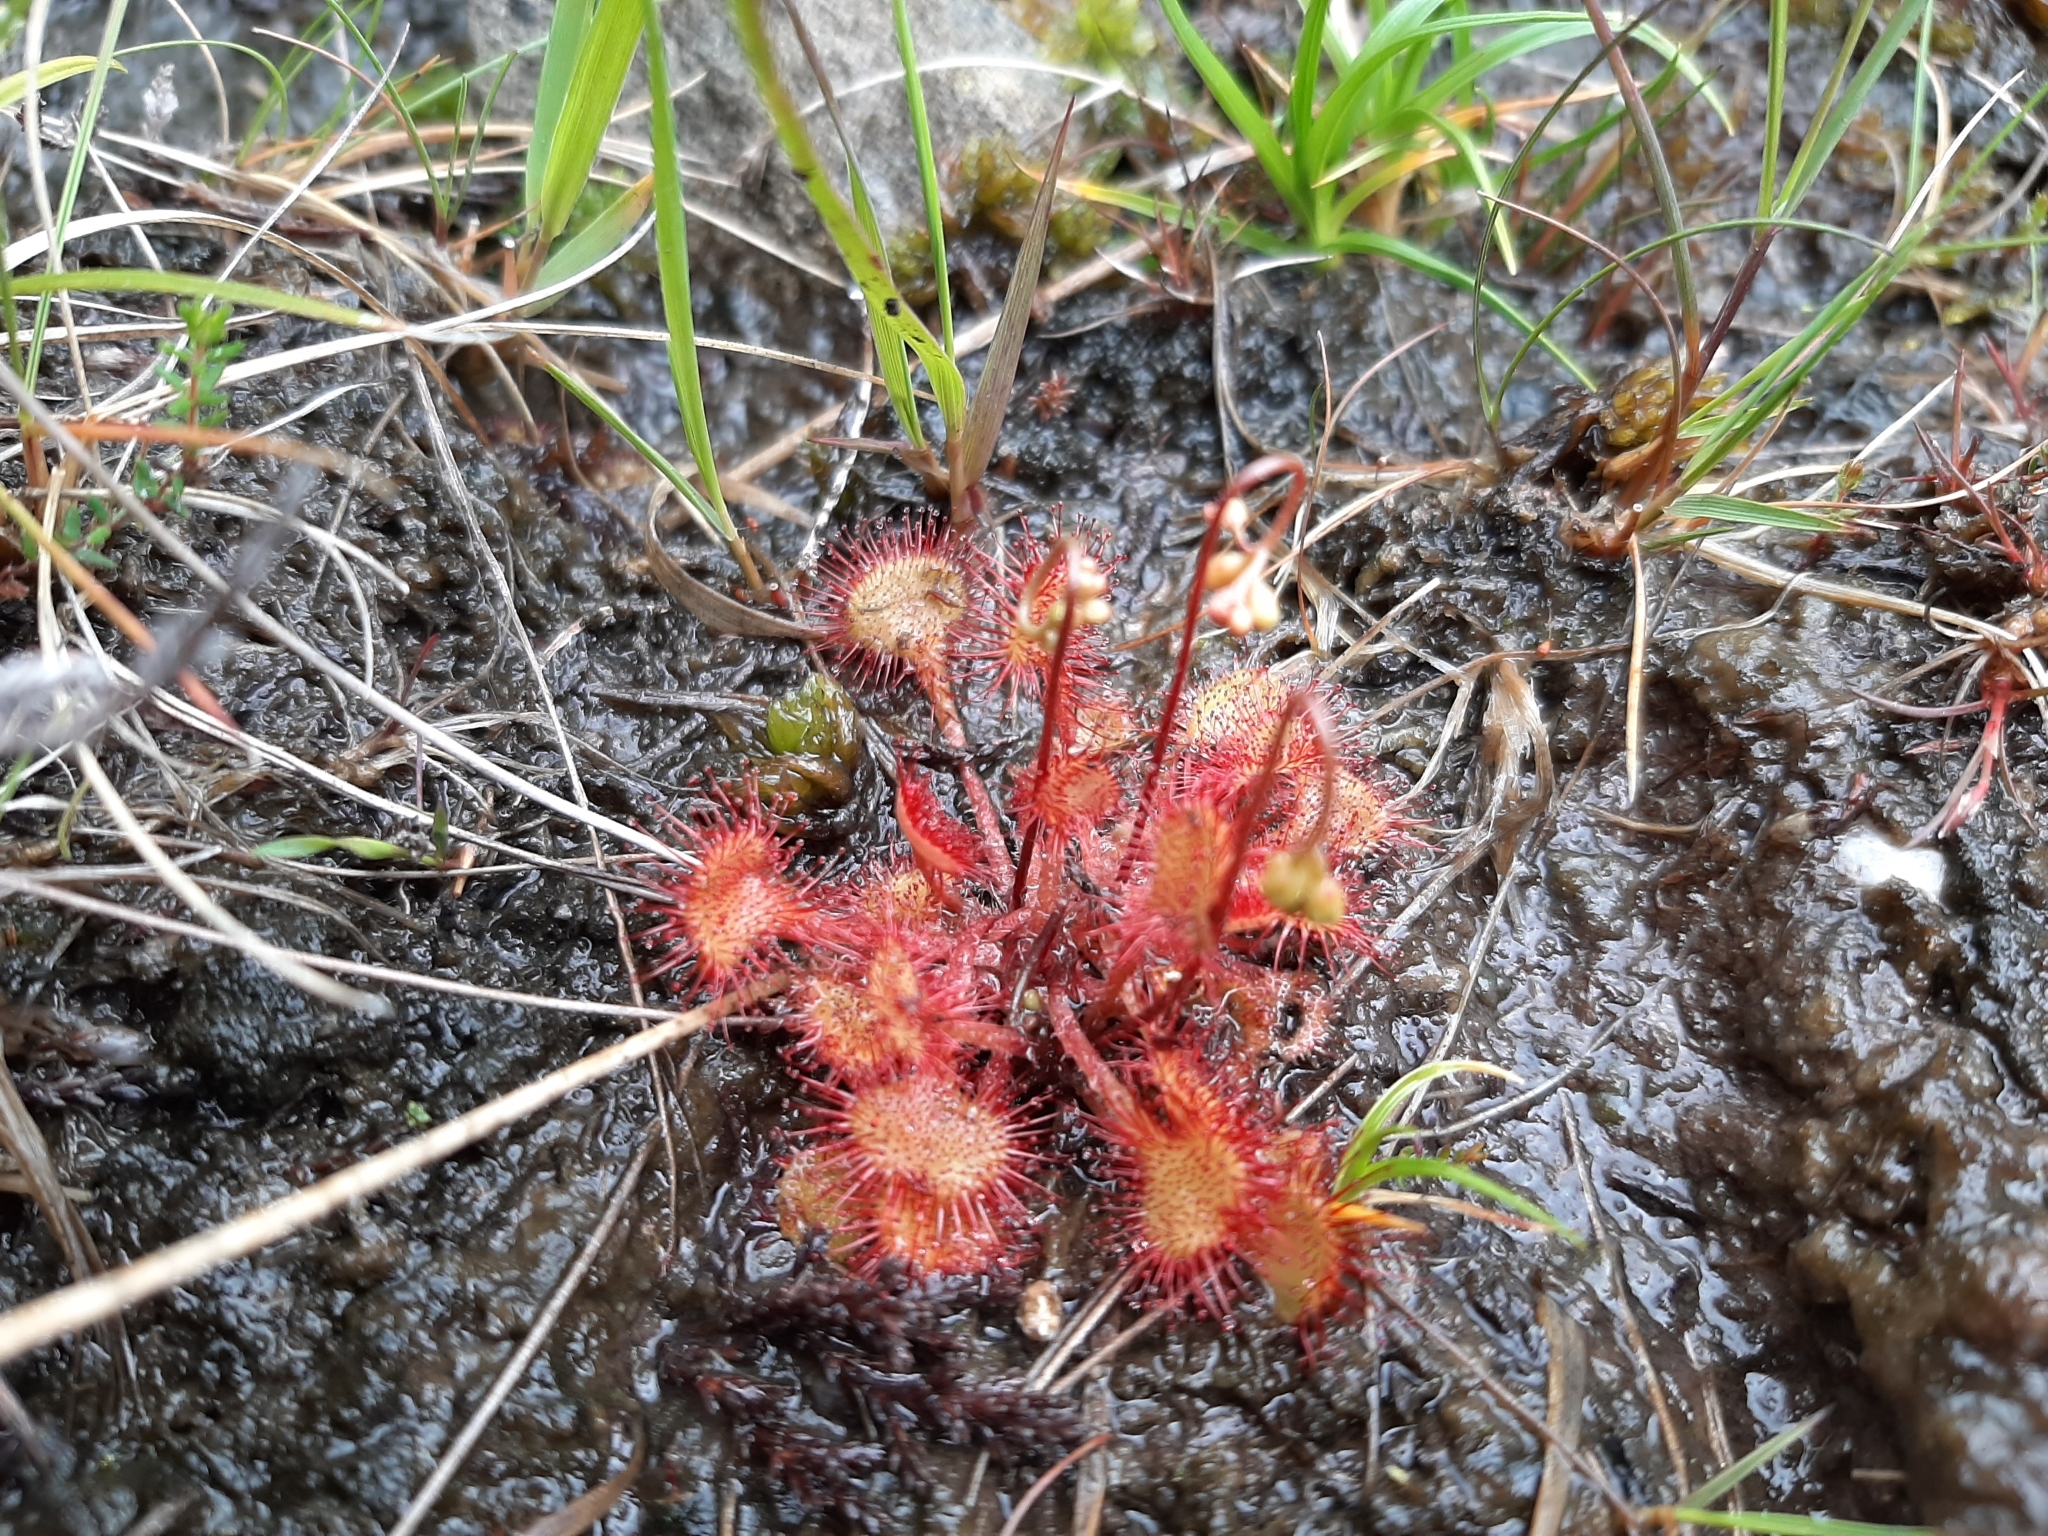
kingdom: Plantae
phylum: Tracheophyta
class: Magnoliopsida
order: Caryophyllales
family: Droseraceae
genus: Drosera
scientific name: Drosera rotundifolia
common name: Round-leaved sundew
